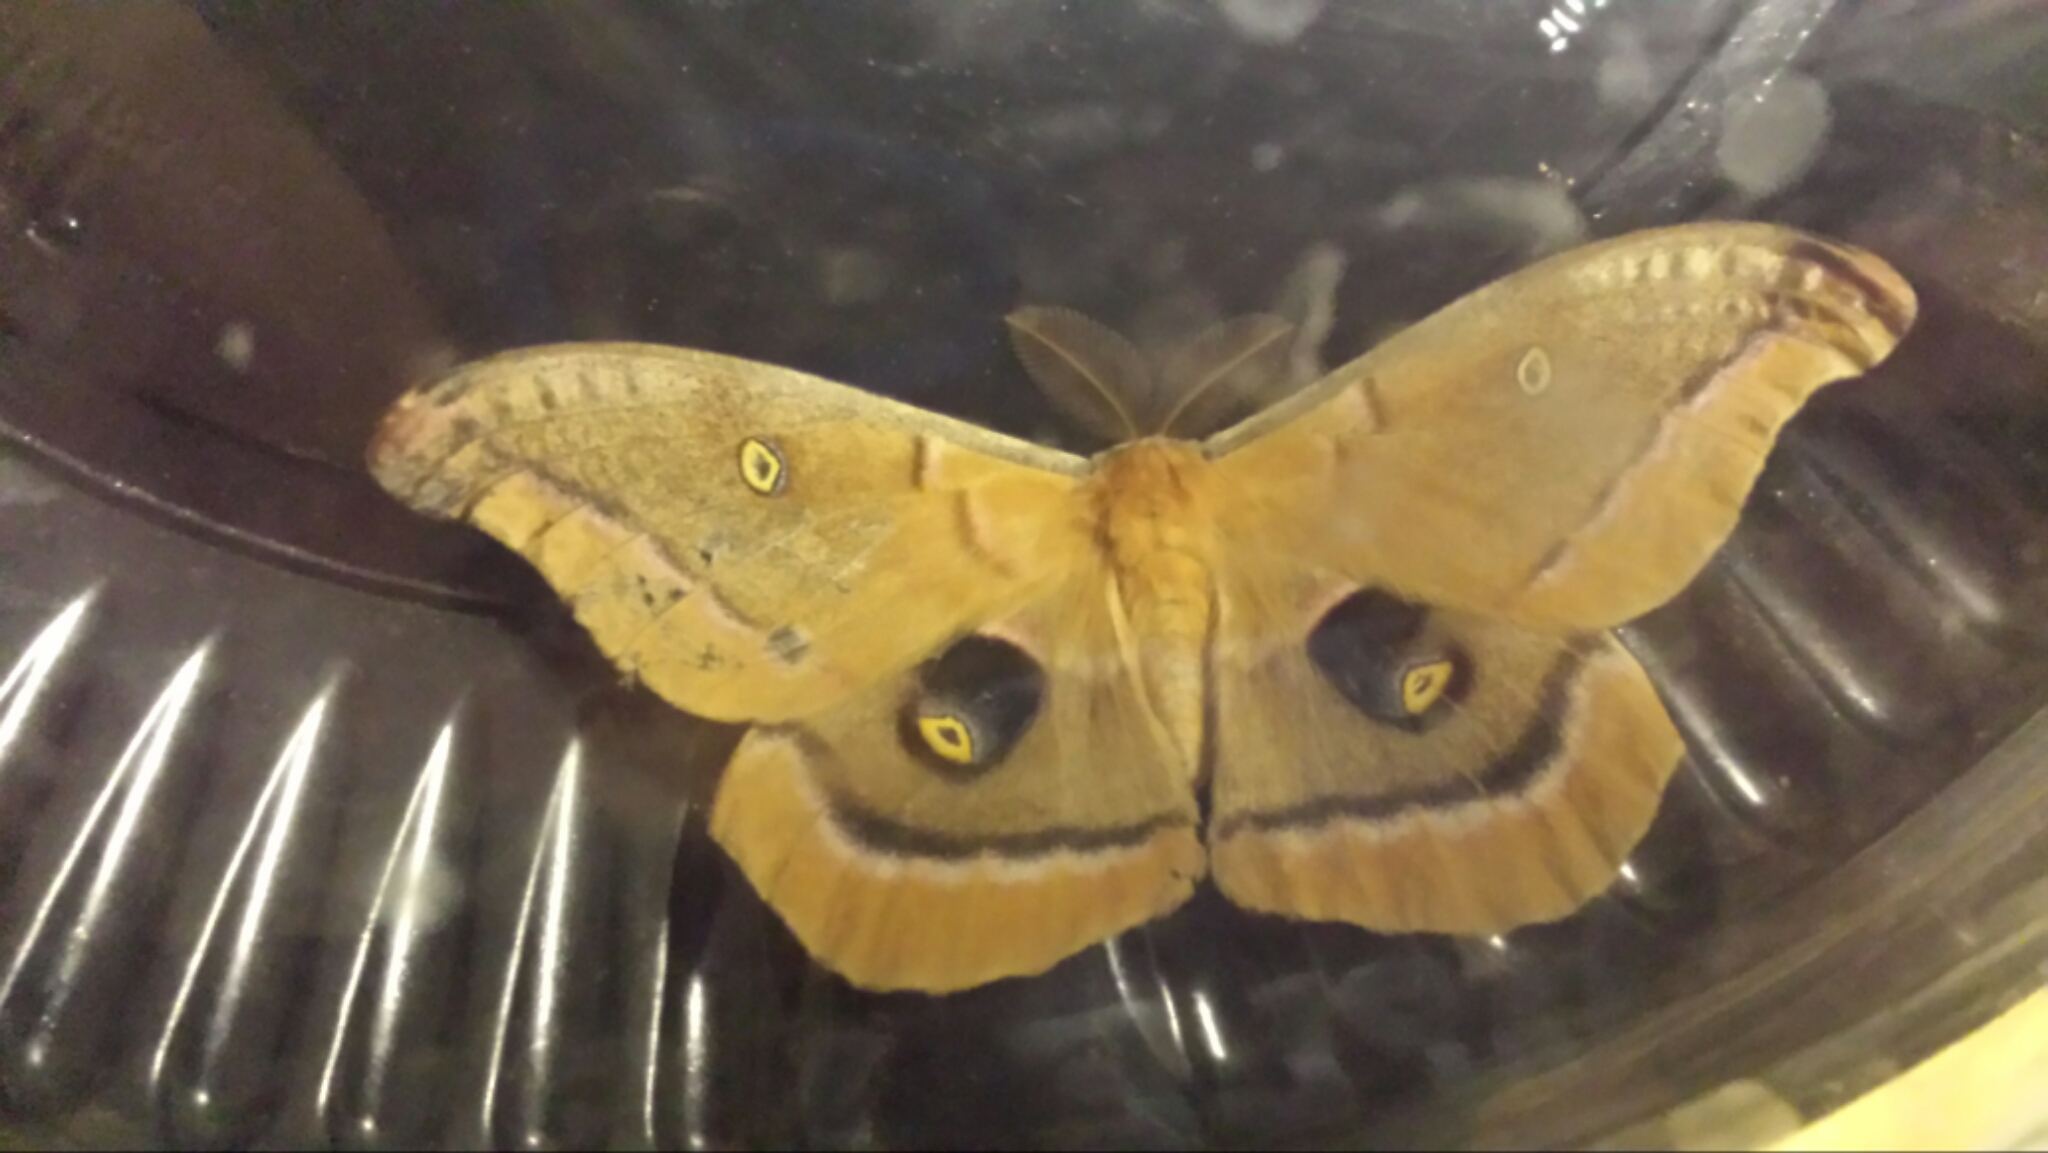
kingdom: Animalia
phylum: Arthropoda
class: Insecta
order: Lepidoptera
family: Saturniidae
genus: Antheraea
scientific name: Antheraea polyphemus
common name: Polyphemus moth
